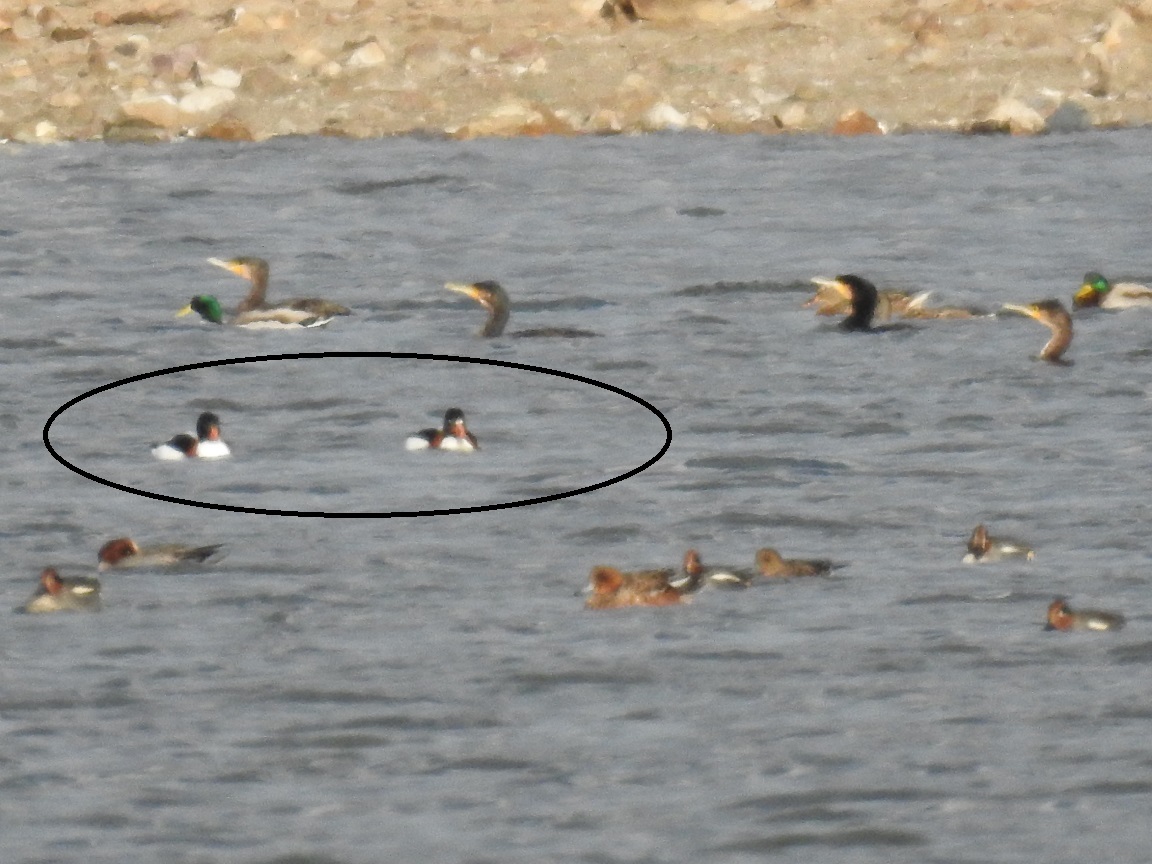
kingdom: Animalia
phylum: Chordata
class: Aves
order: Anseriformes
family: Anatidae
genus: Tadorna
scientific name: Tadorna tadorna
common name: Common shelduck
